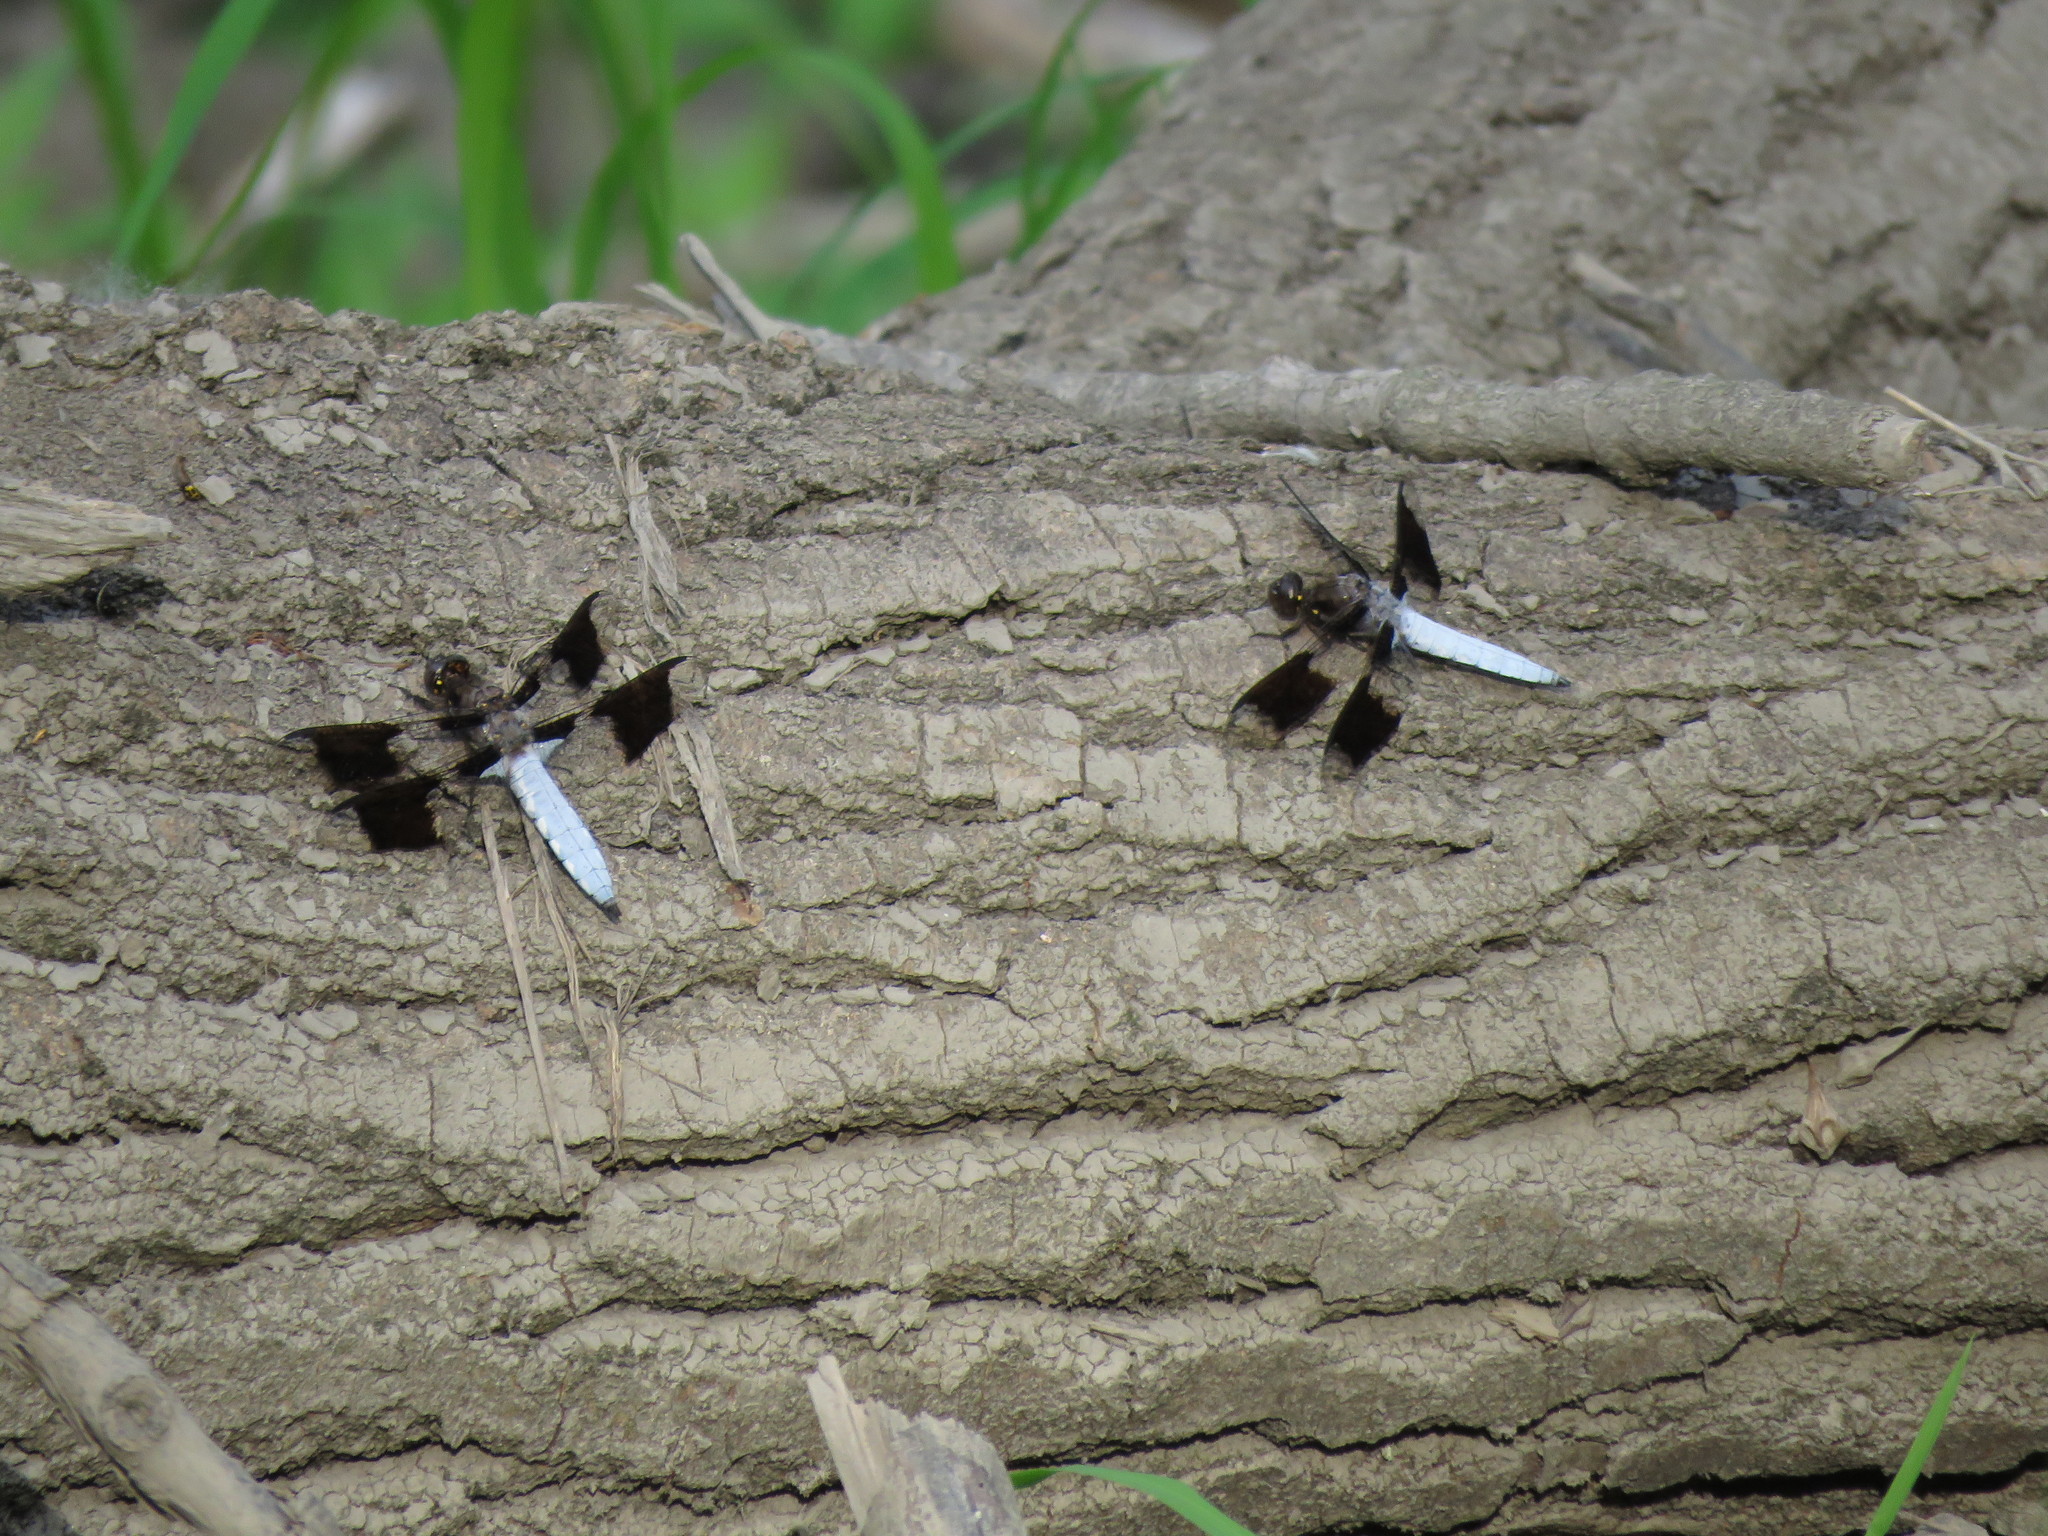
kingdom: Animalia
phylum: Arthropoda
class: Insecta
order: Odonata
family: Libellulidae
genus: Plathemis
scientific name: Plathemis lydia
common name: Common whitetail
